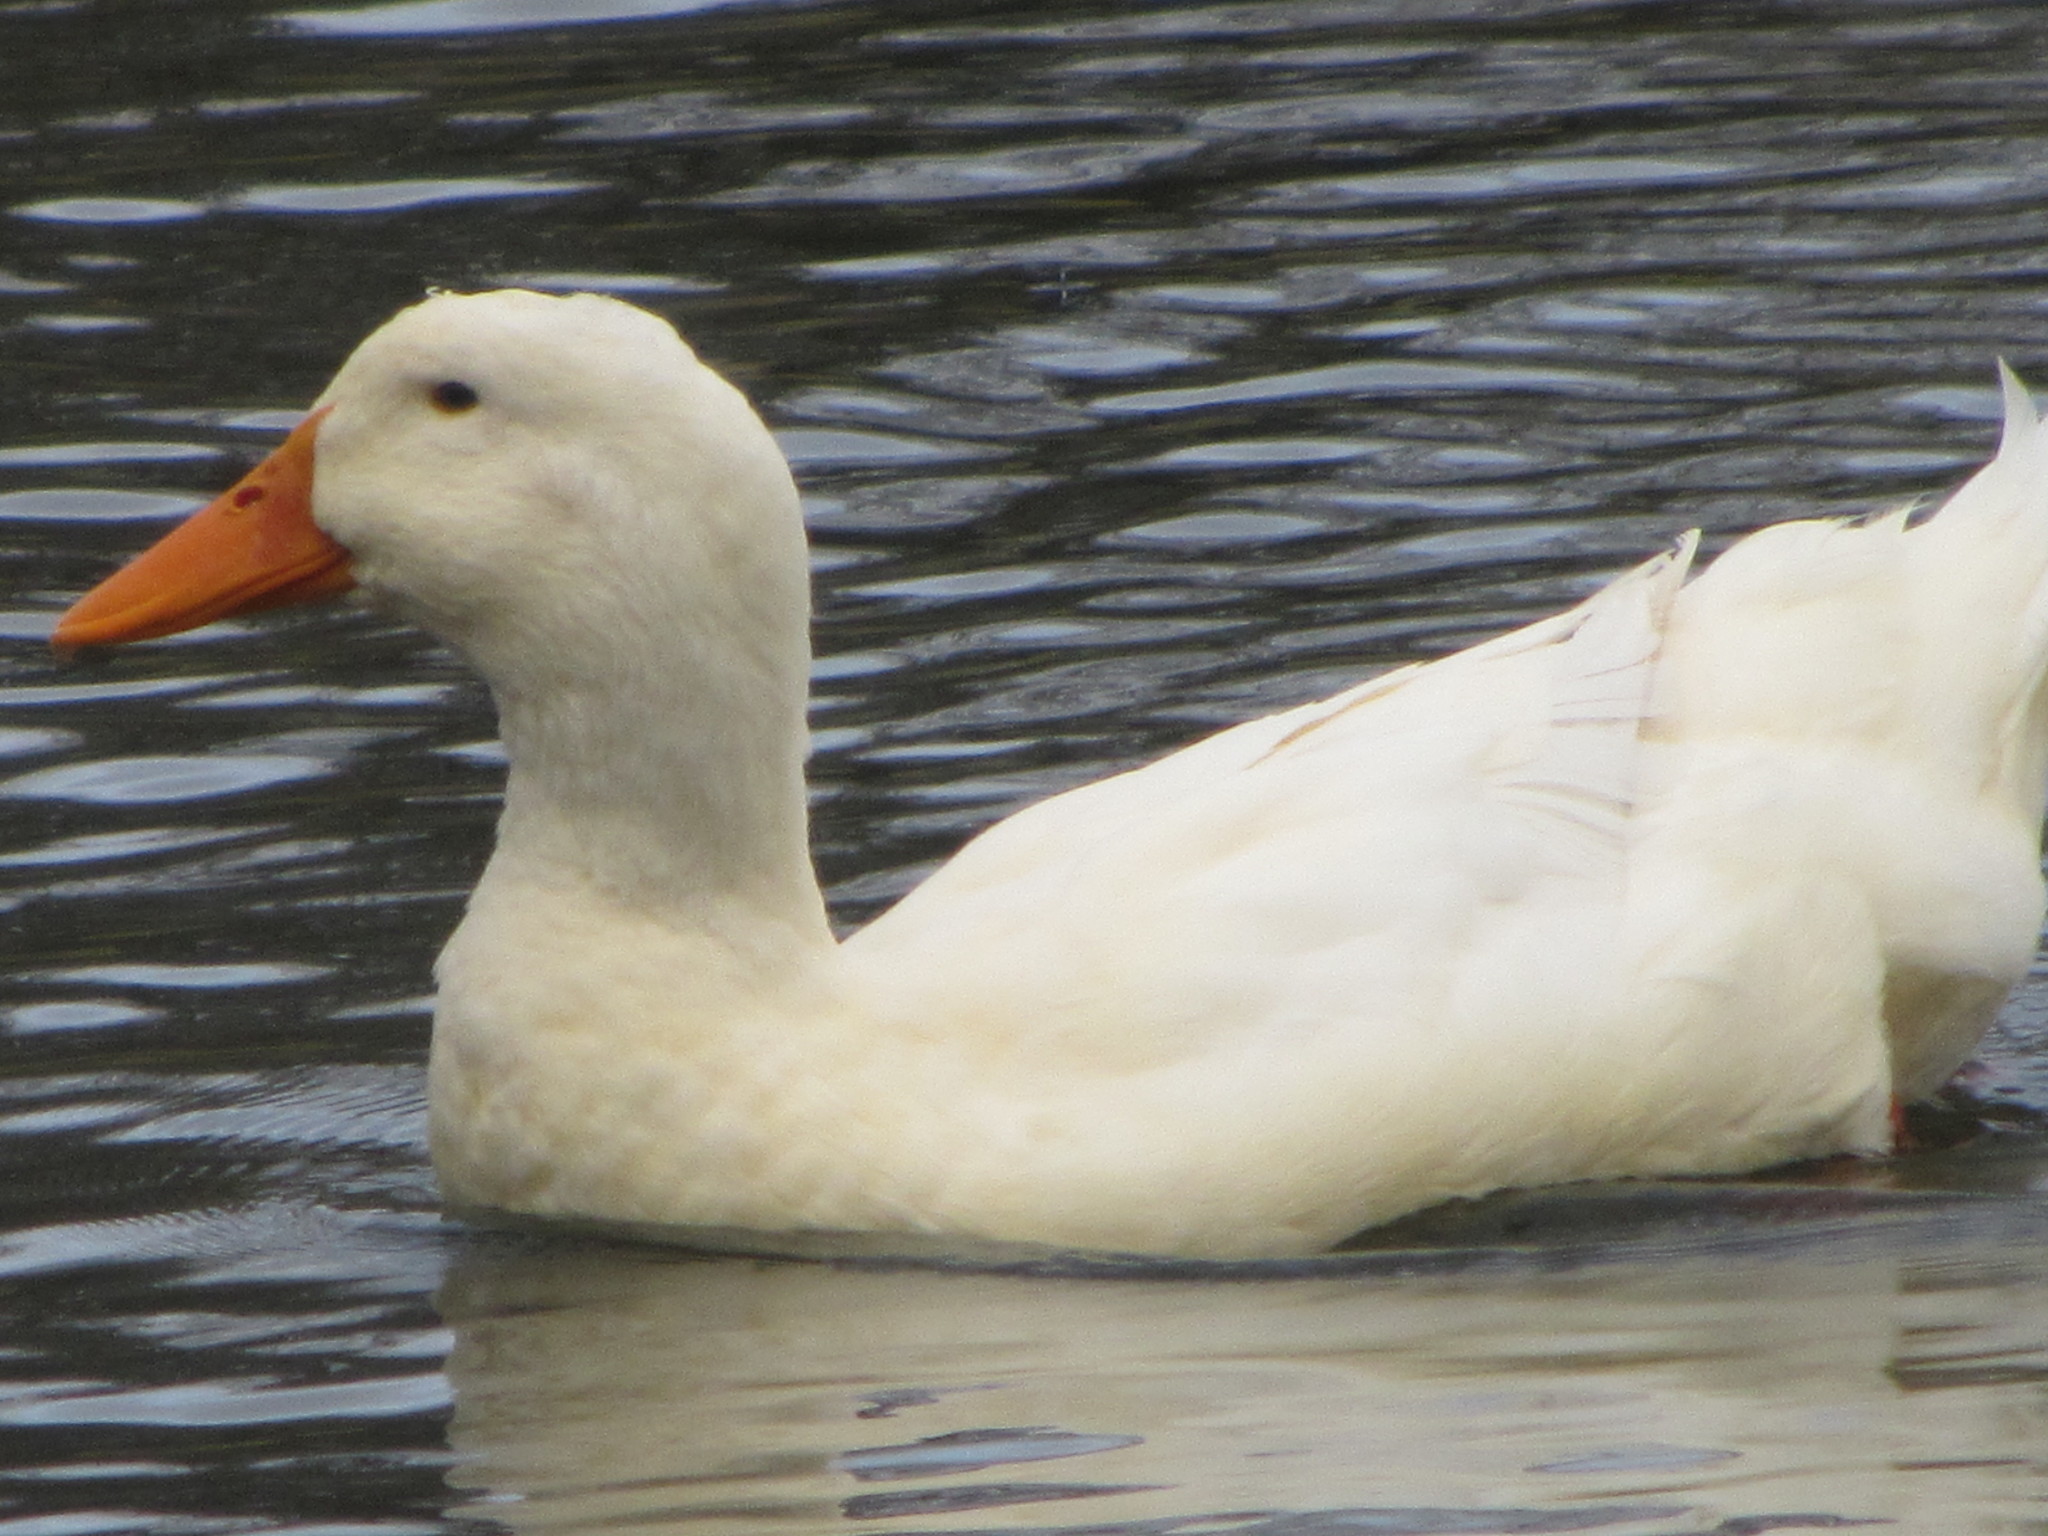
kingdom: Animalia
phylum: Chordata
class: Aves
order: Anseriformes
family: Anatidae
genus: Anas
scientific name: Anas platyrhynchos
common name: Mallard
